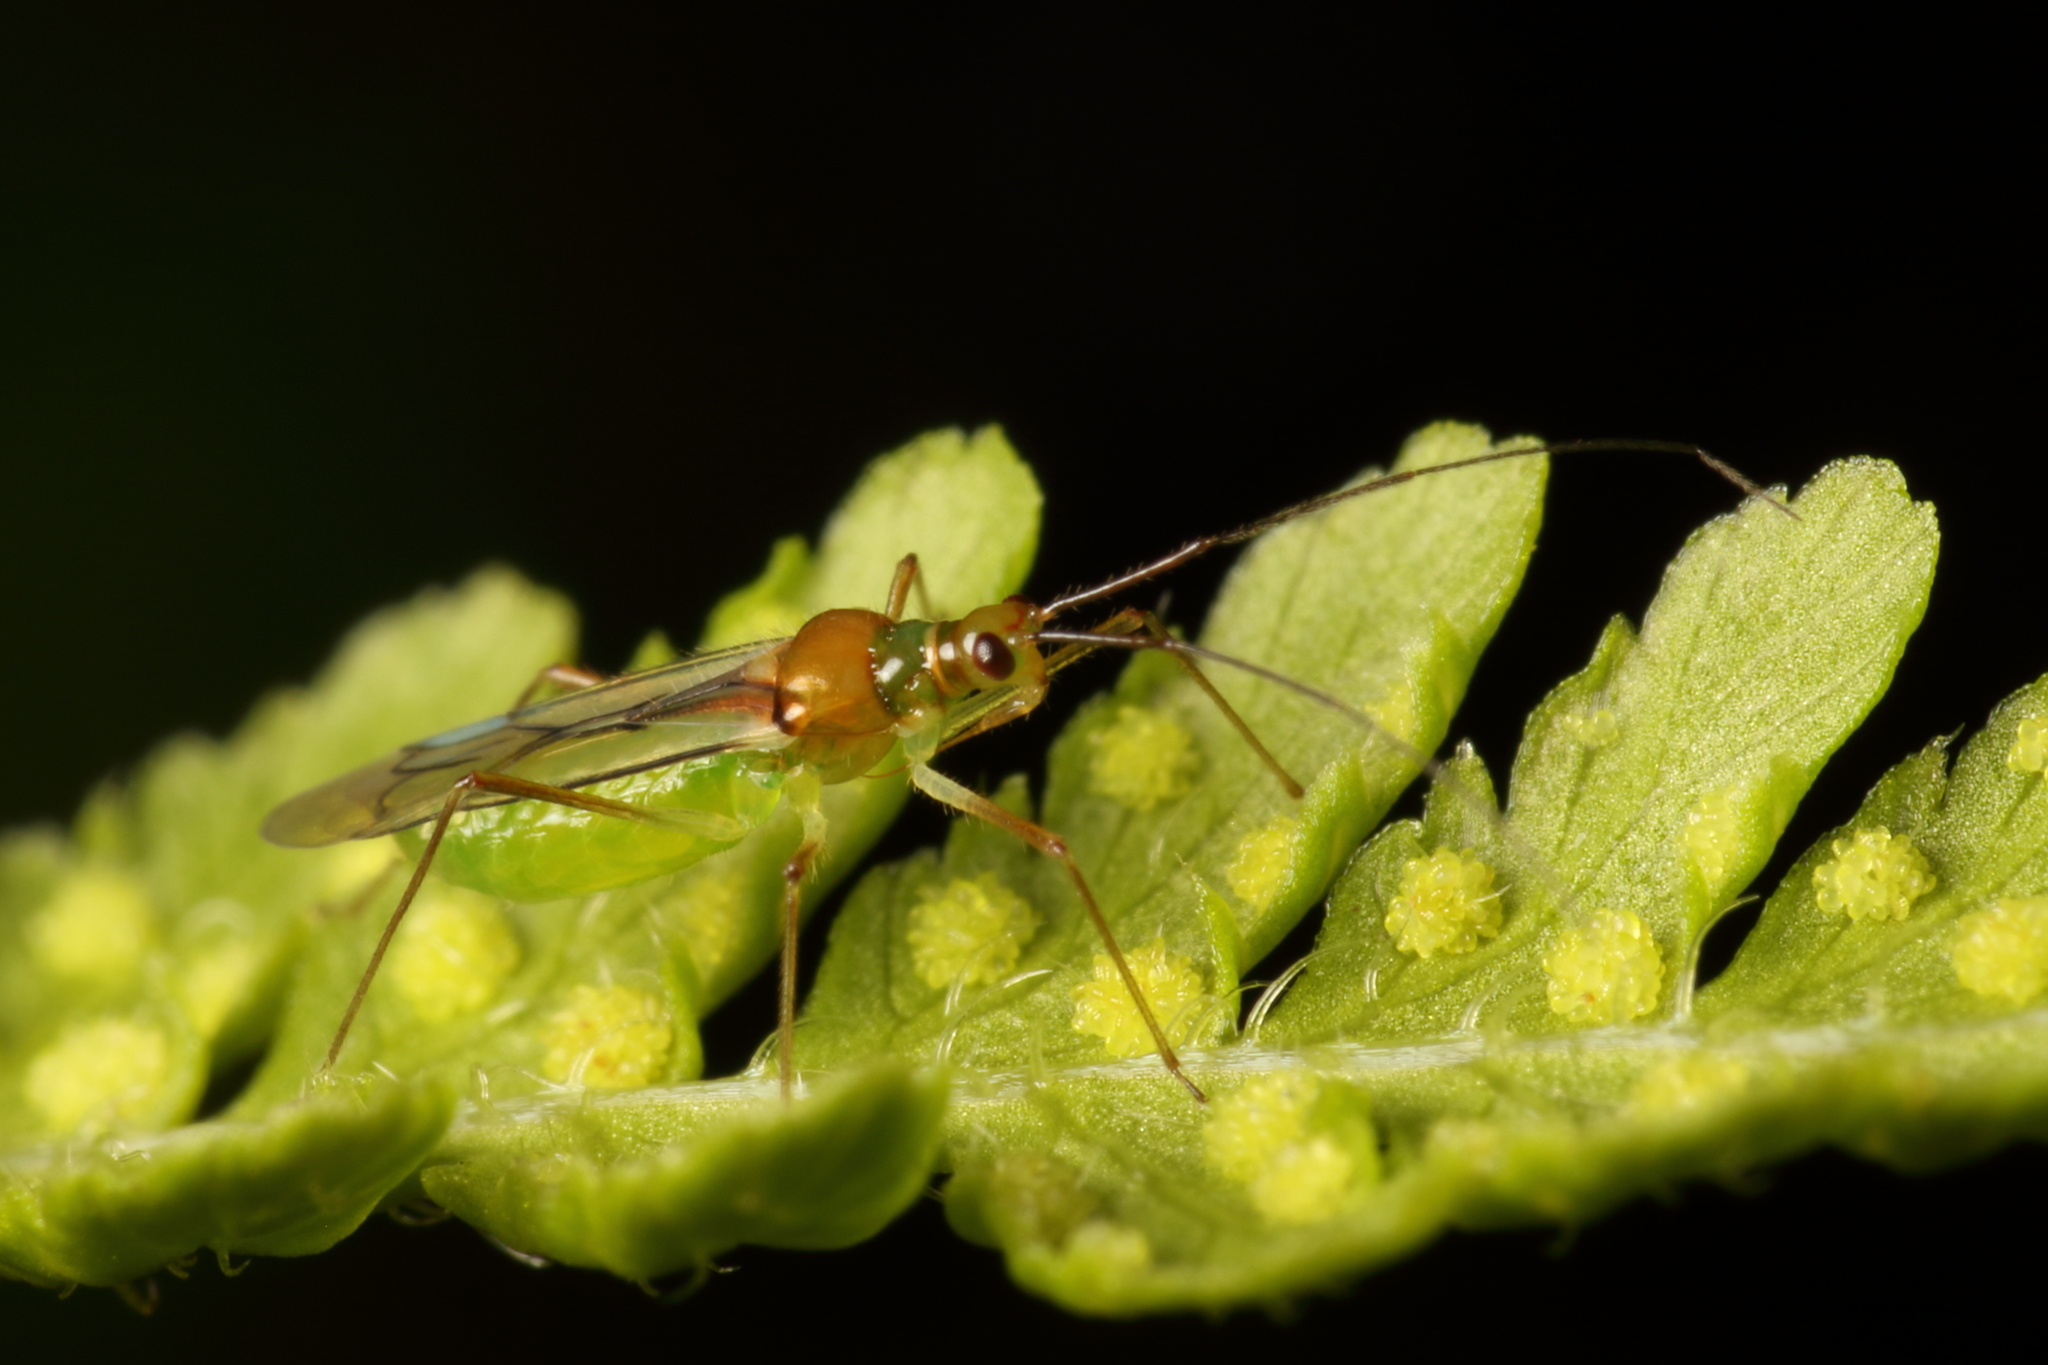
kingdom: Animalia
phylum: Arthropoda
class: Insecta
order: Hemiptera
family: Miridae
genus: Felisacus
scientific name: Felisacus elegantulus
